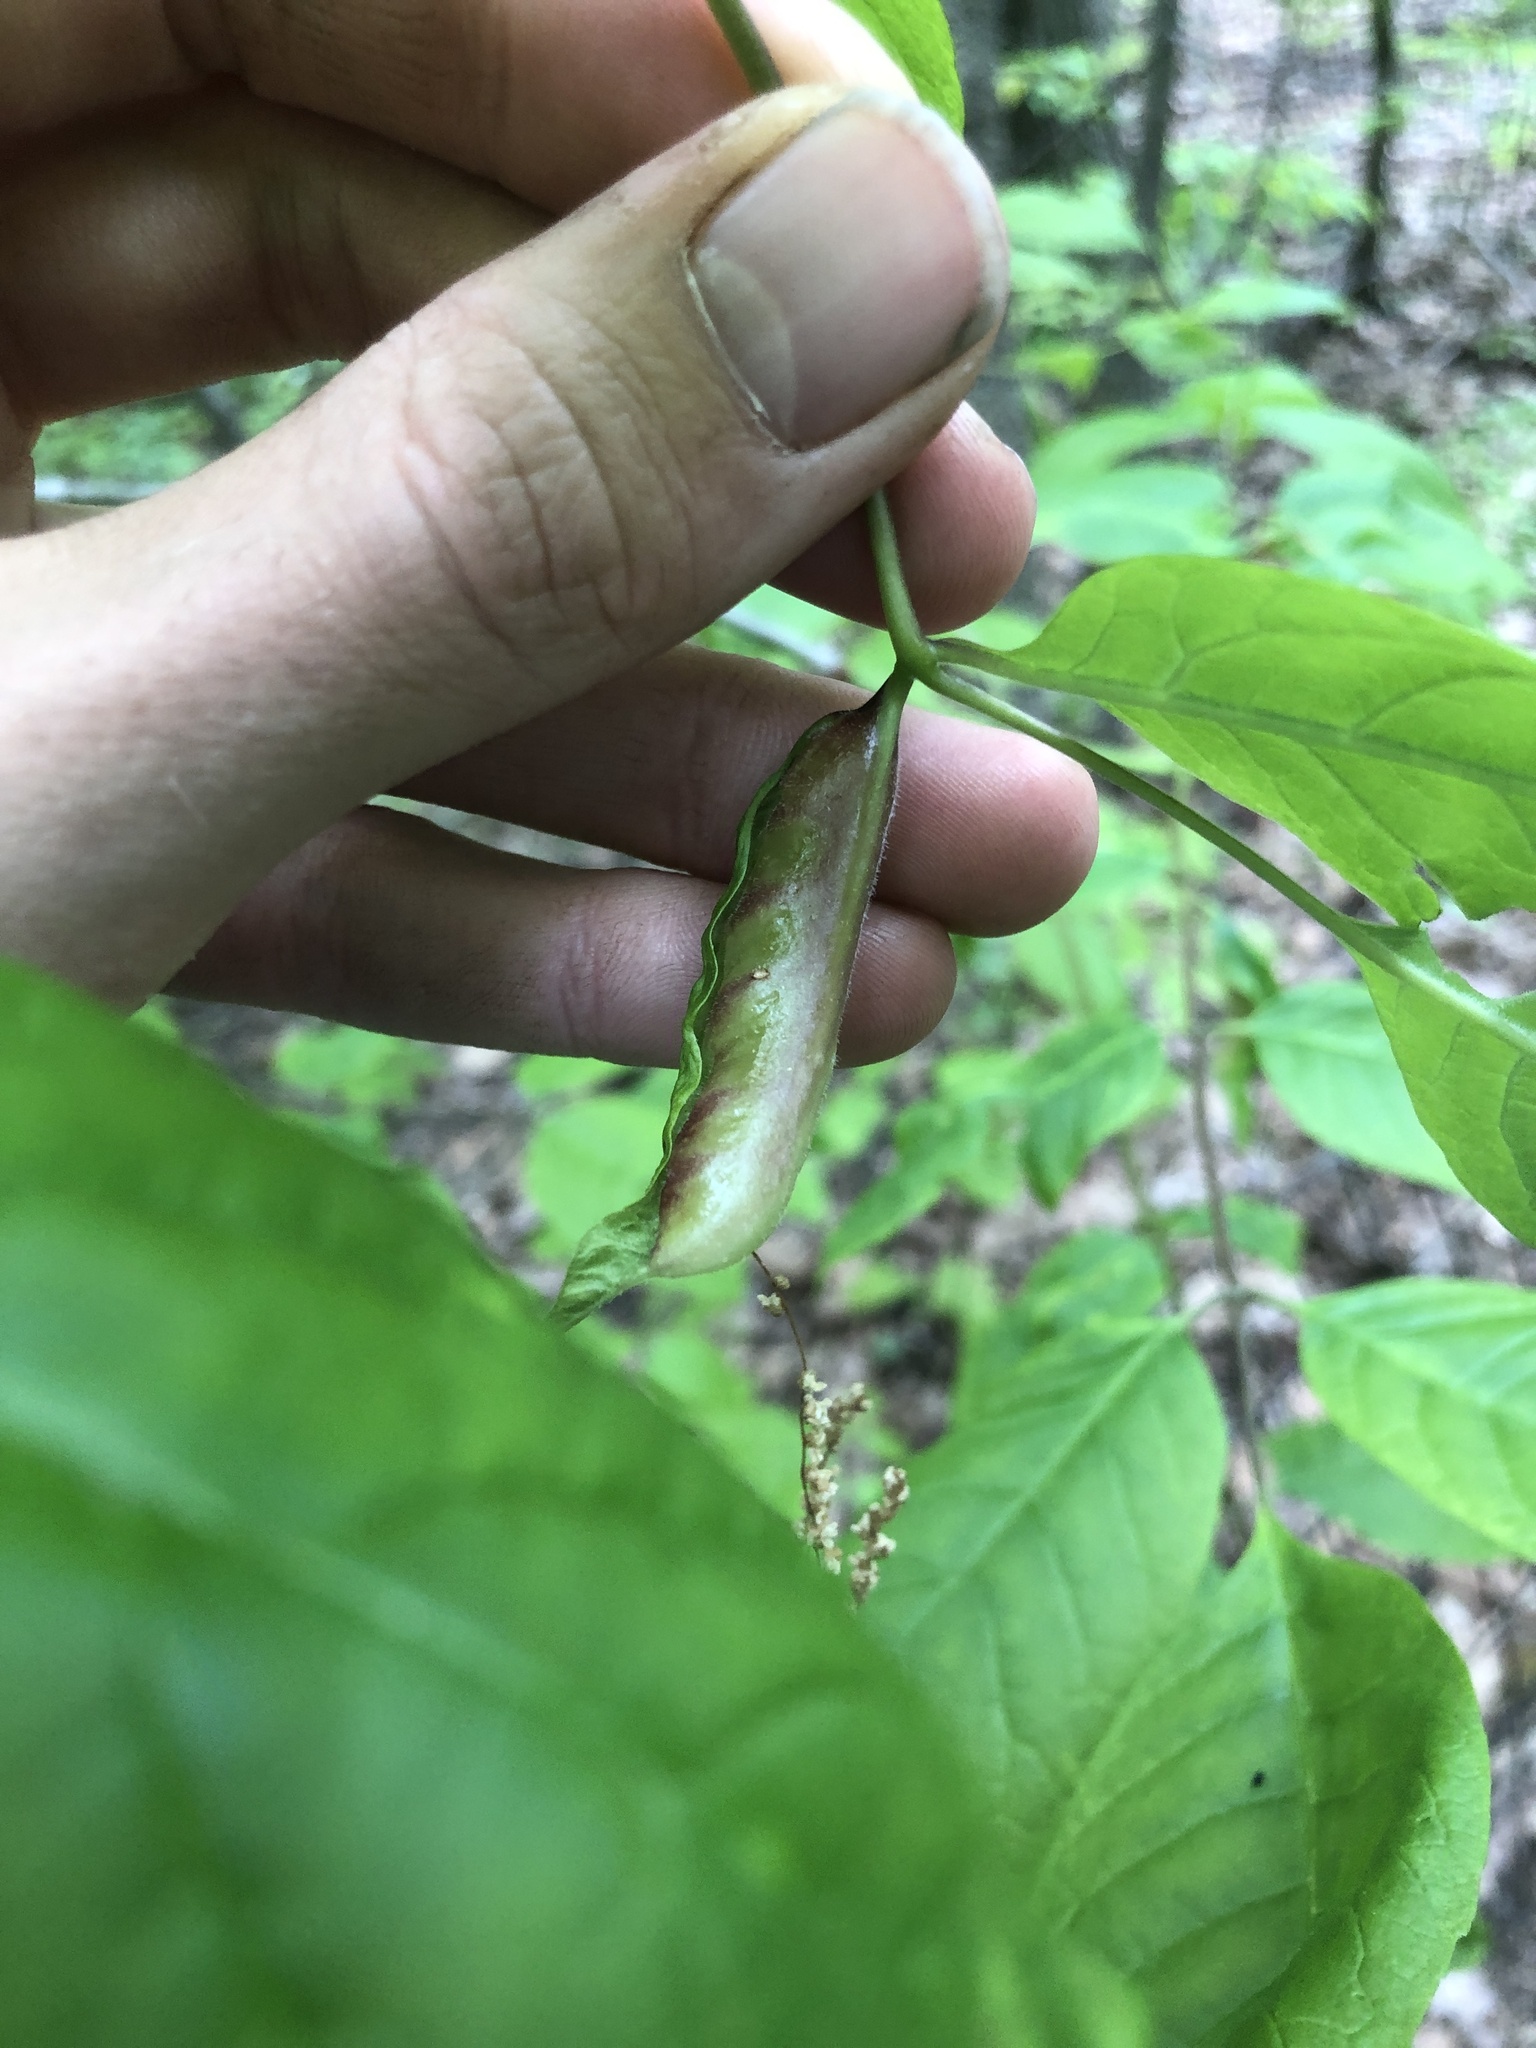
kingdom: Animalia
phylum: Arthropoda
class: Insecta
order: Diptera
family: Cecidomyiidae
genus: Dasineura
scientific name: Dasineura tumidosae
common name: Ash petiole gall midge
